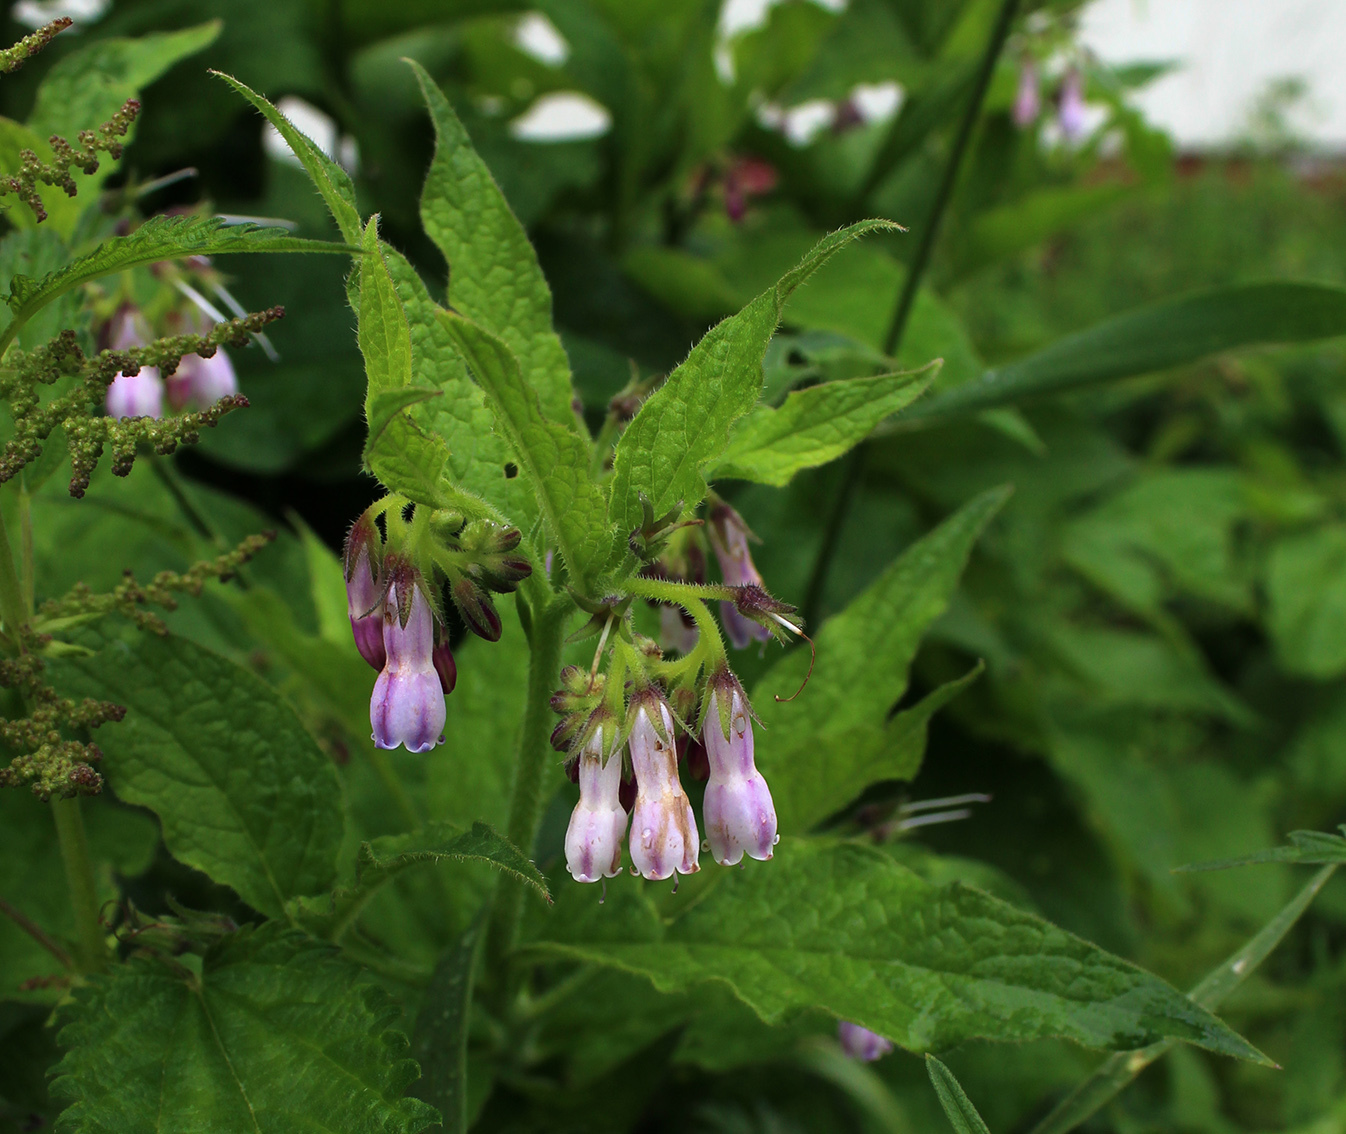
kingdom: Plantae
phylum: Tracheophyta
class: Magnoliopsida
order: Boraginales
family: Boraginaceae
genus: Symphytum
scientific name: Symphytum uplandicum
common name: Russian comfrey
